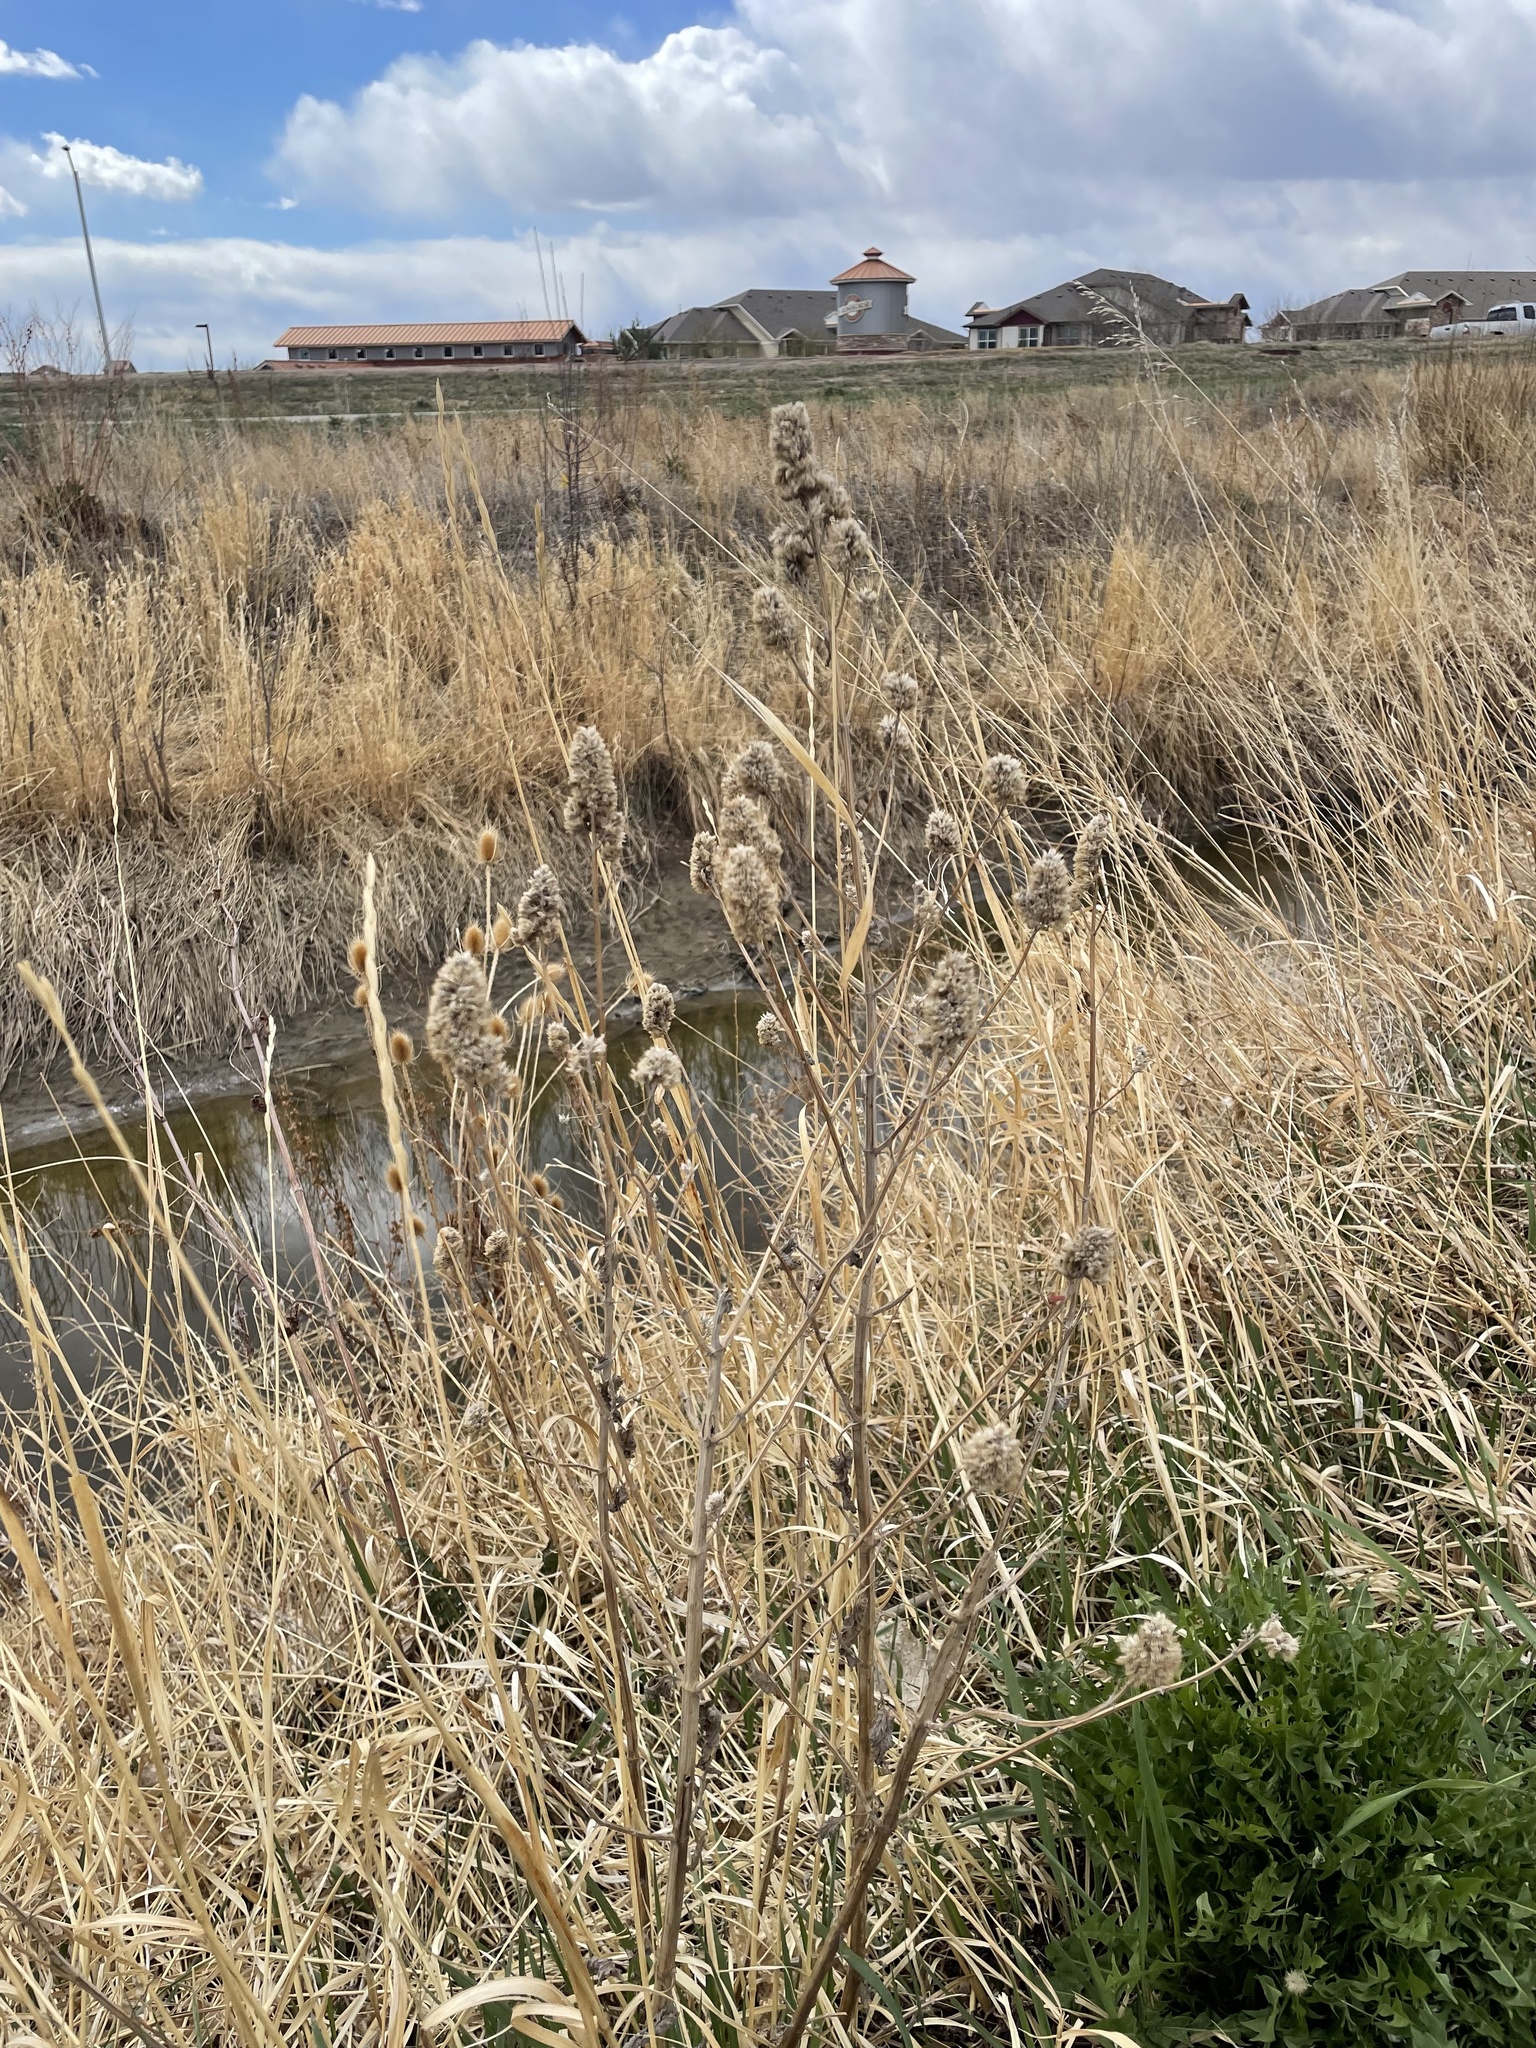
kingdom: Plantae
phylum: Tracheophyta
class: Magnoliopsida
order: Lamiales
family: Lamiaceae
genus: Nepeta
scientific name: Nepeta cataria
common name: Catnip
